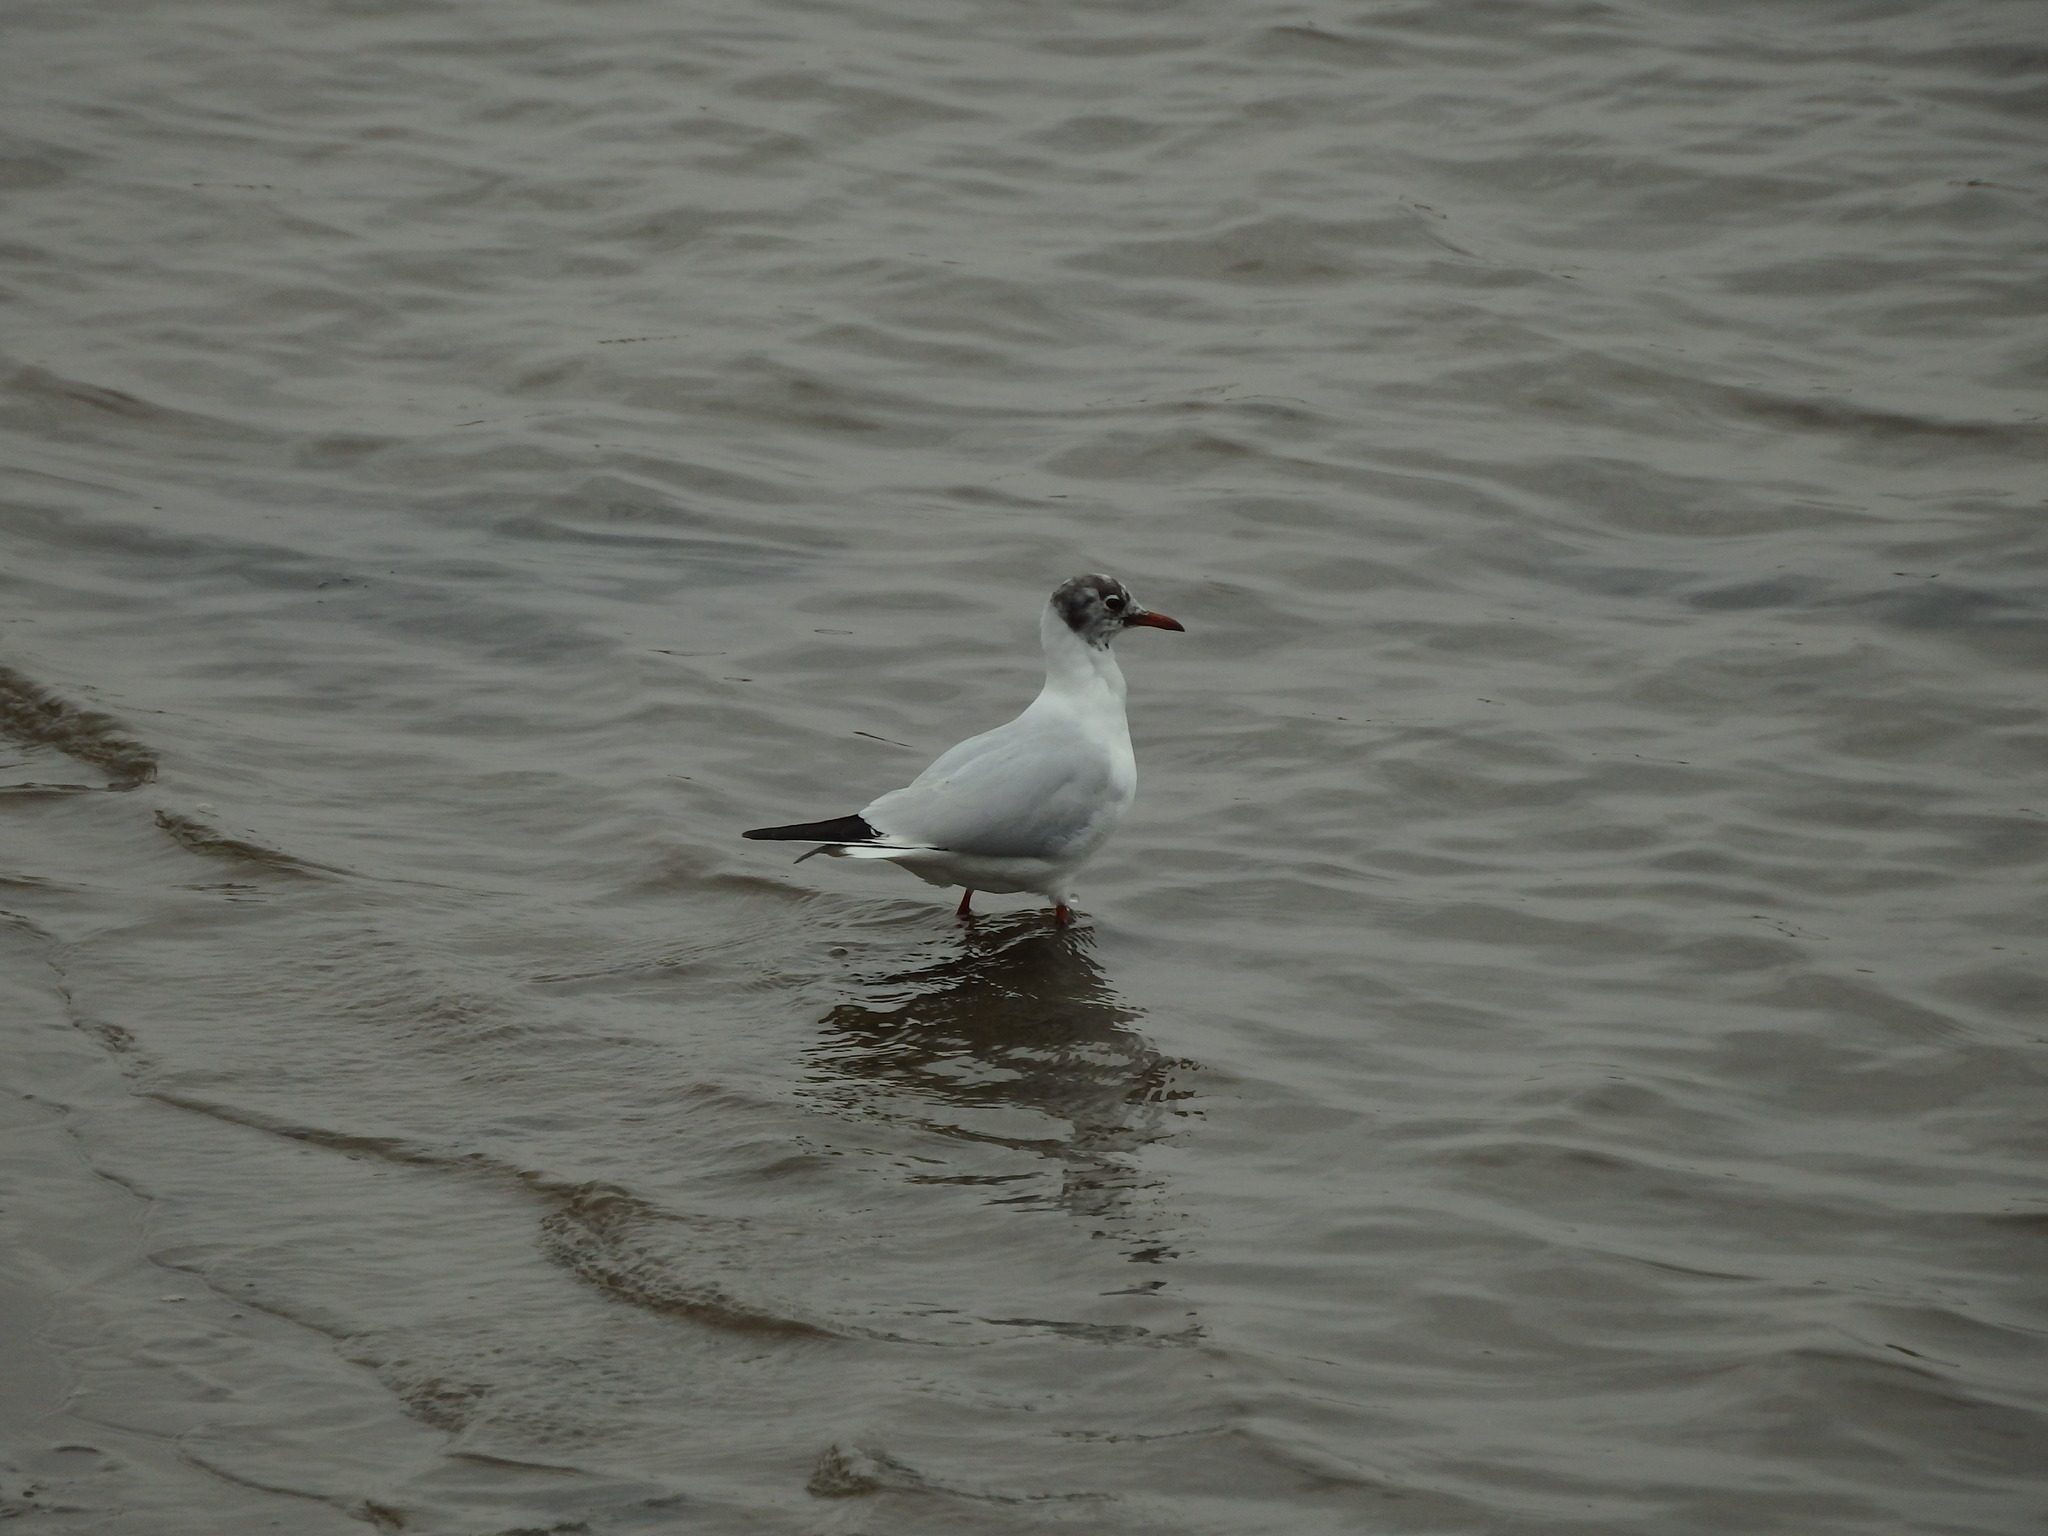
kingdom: Animalia
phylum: Chordata
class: Aves
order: Charadriiformes
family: Laridae
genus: Chroicocephalus
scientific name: Chroicocephalus ridibundus
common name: Black-headed gull
